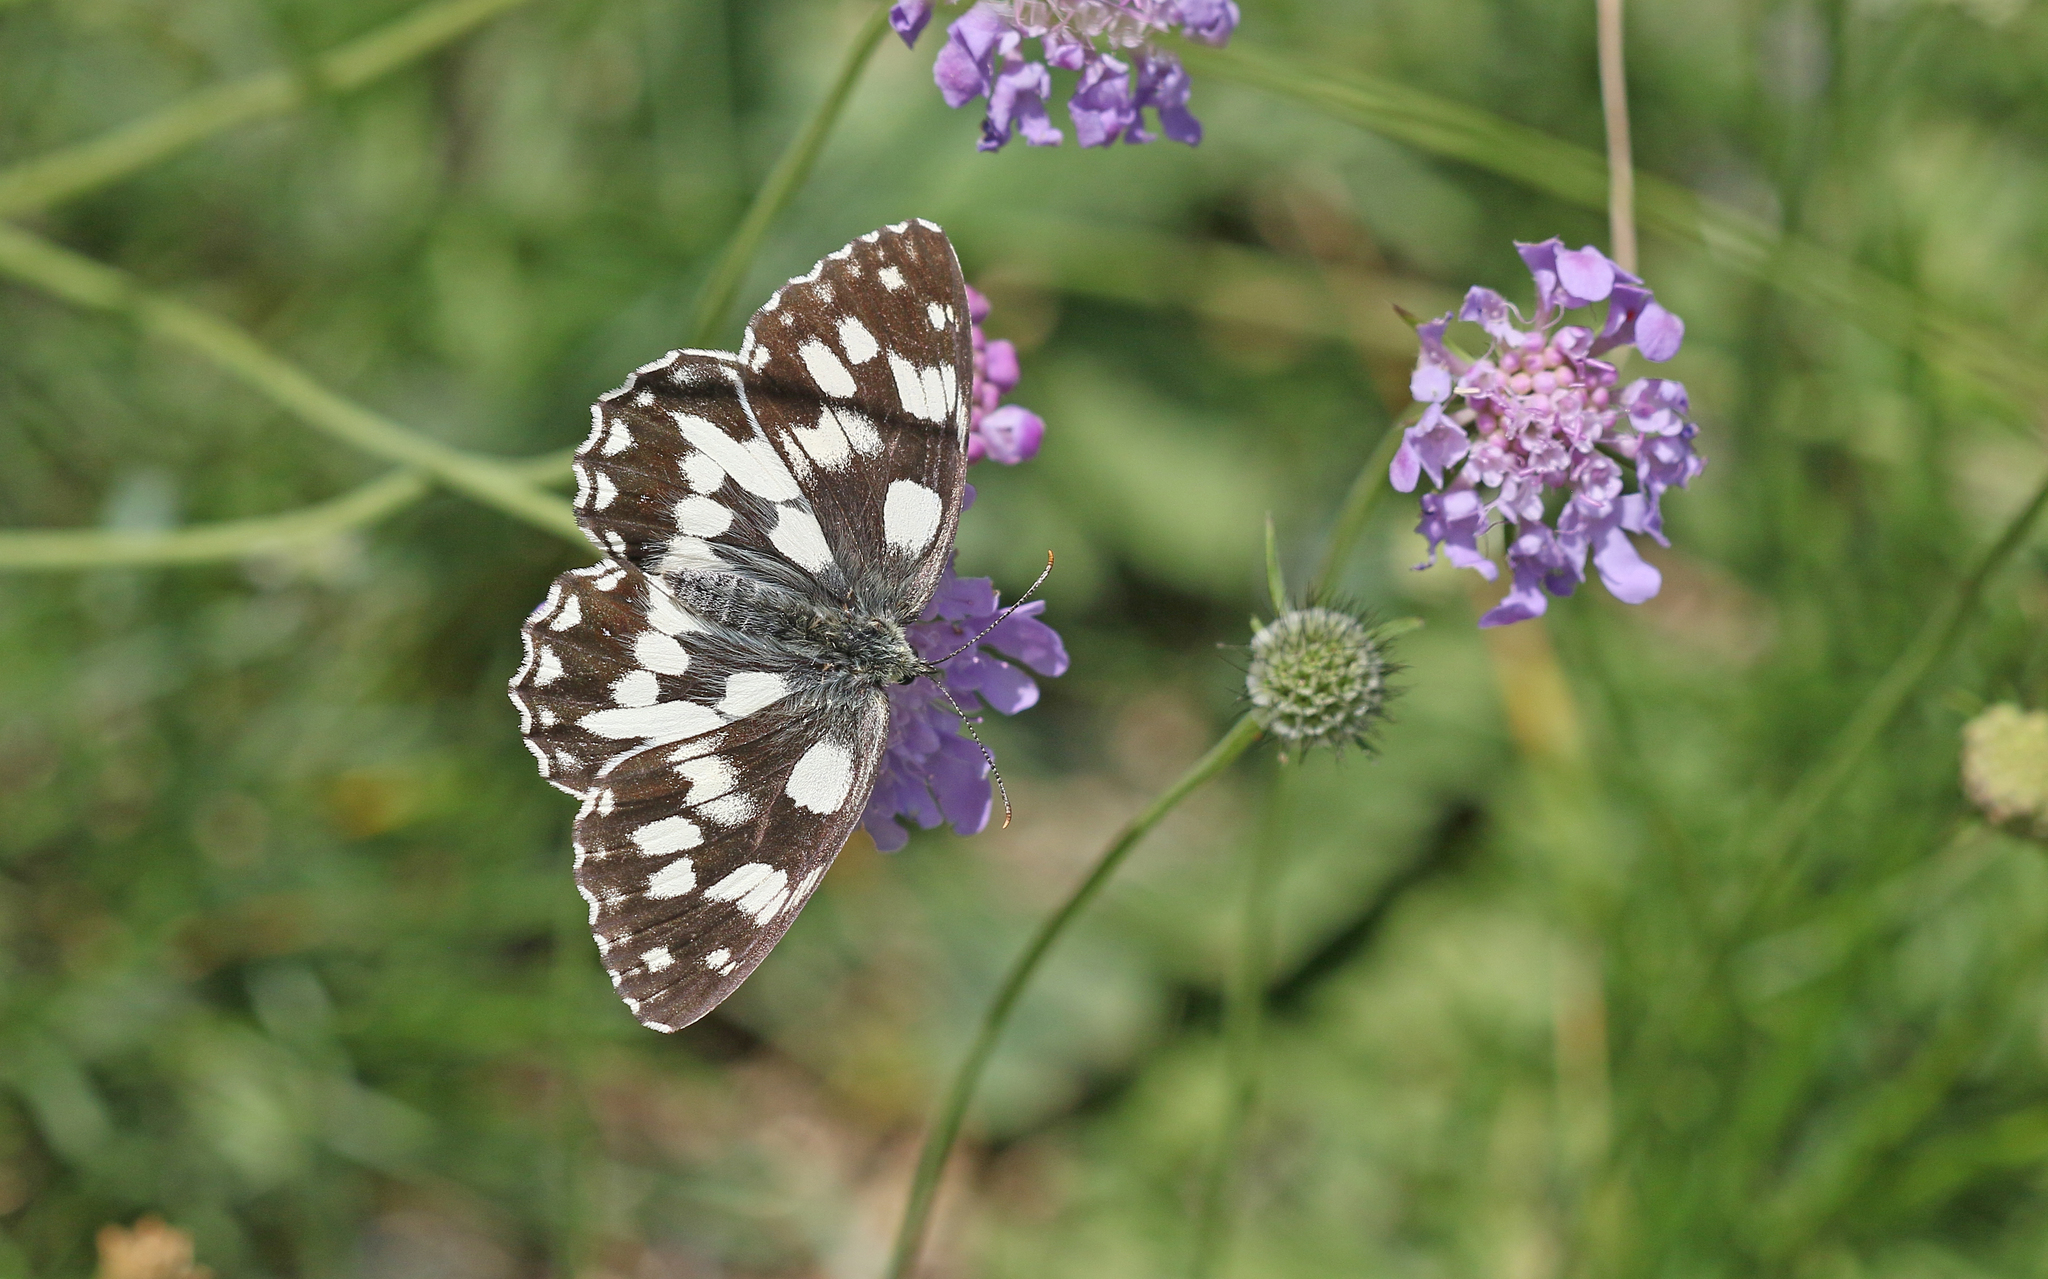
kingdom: Animalia
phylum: Arthropoda
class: Insecta
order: Lepidoptera
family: Nymphalidae
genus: Melanargia
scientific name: Melanargia galathea
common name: Marbled white
